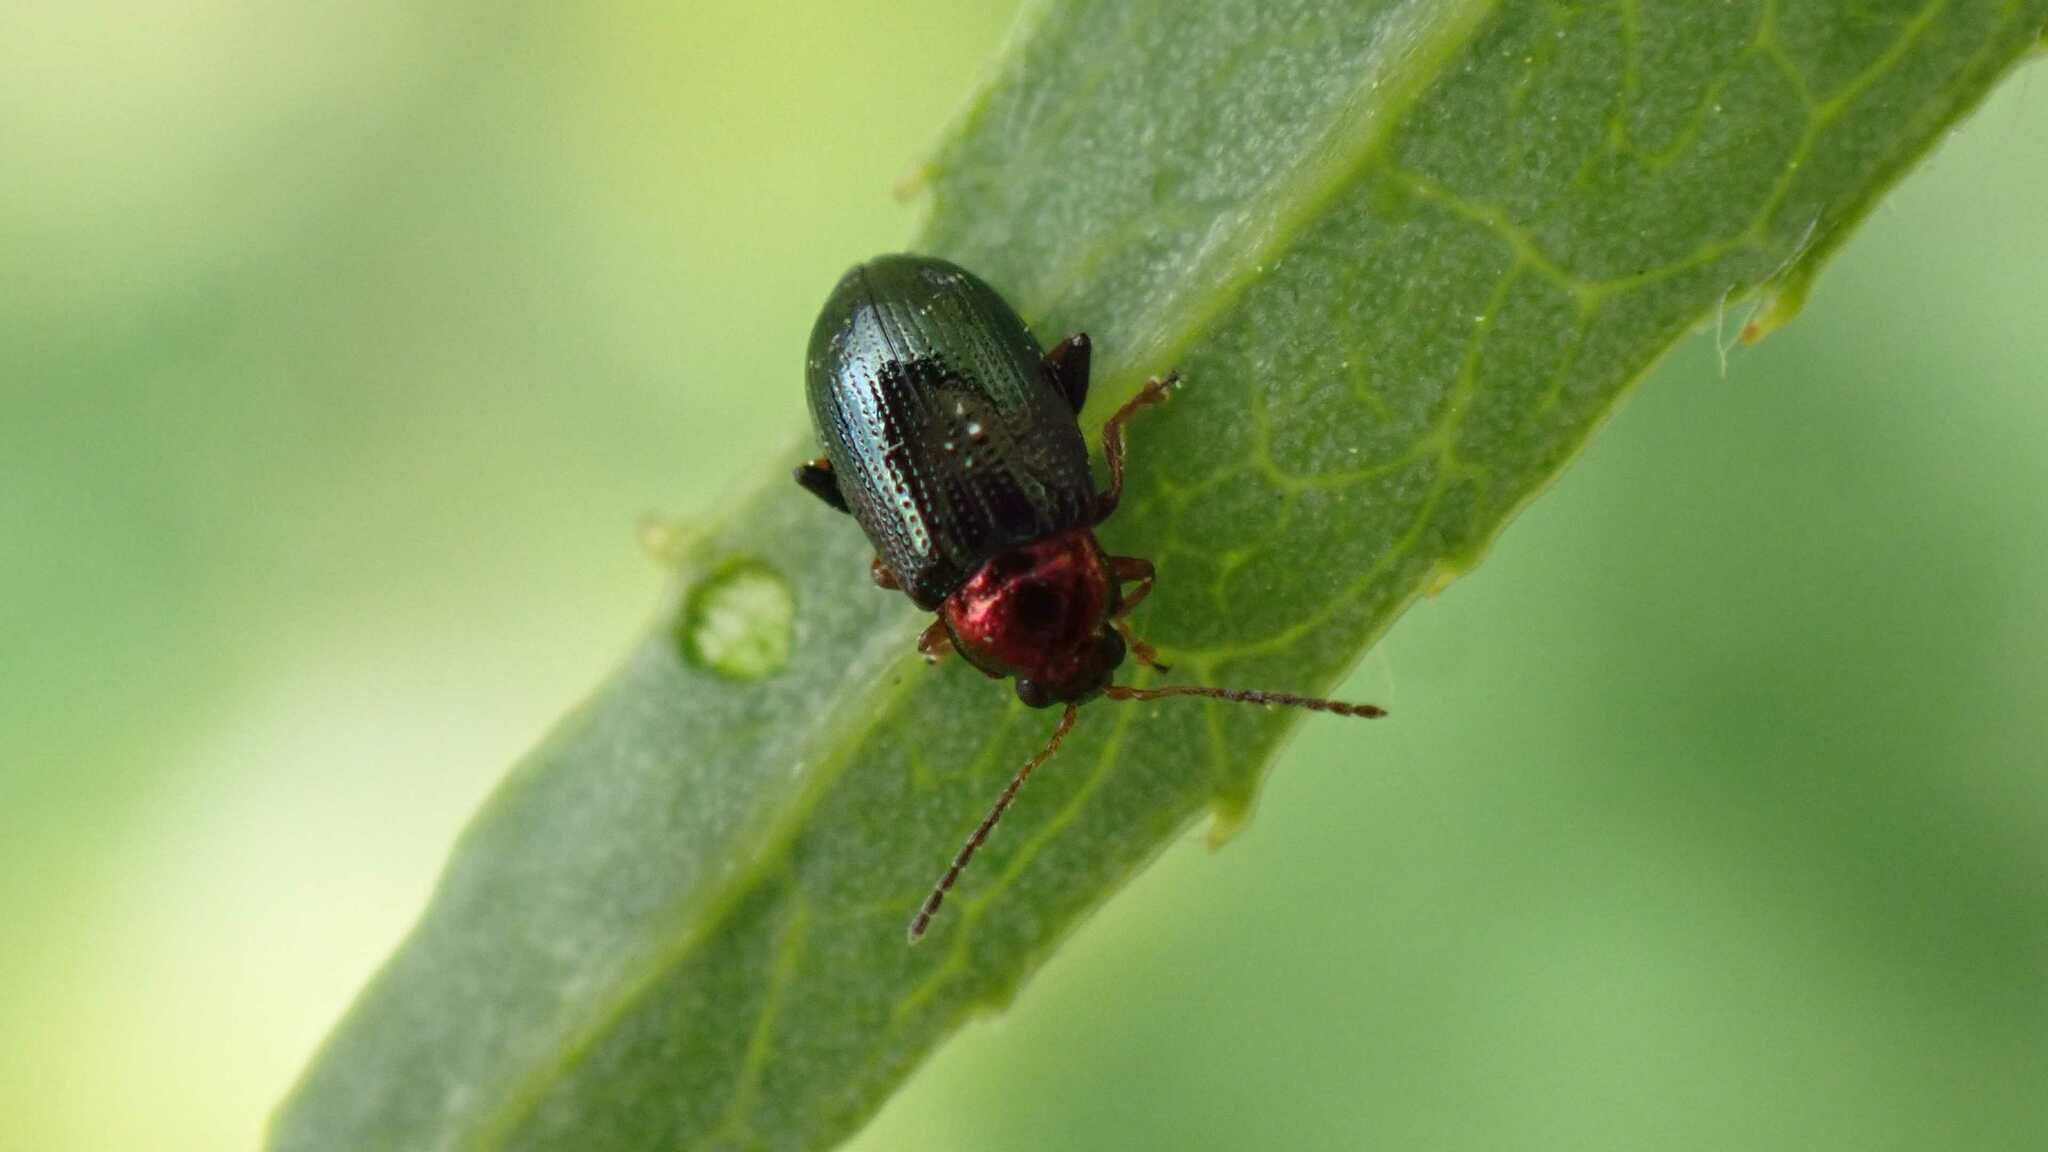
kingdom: Animalia
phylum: Arthropoda
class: Insecta
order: Coleoptera
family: Chrysomelidae
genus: Crepidodera
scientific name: Crepidodera aurata
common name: Willow flea beetle
